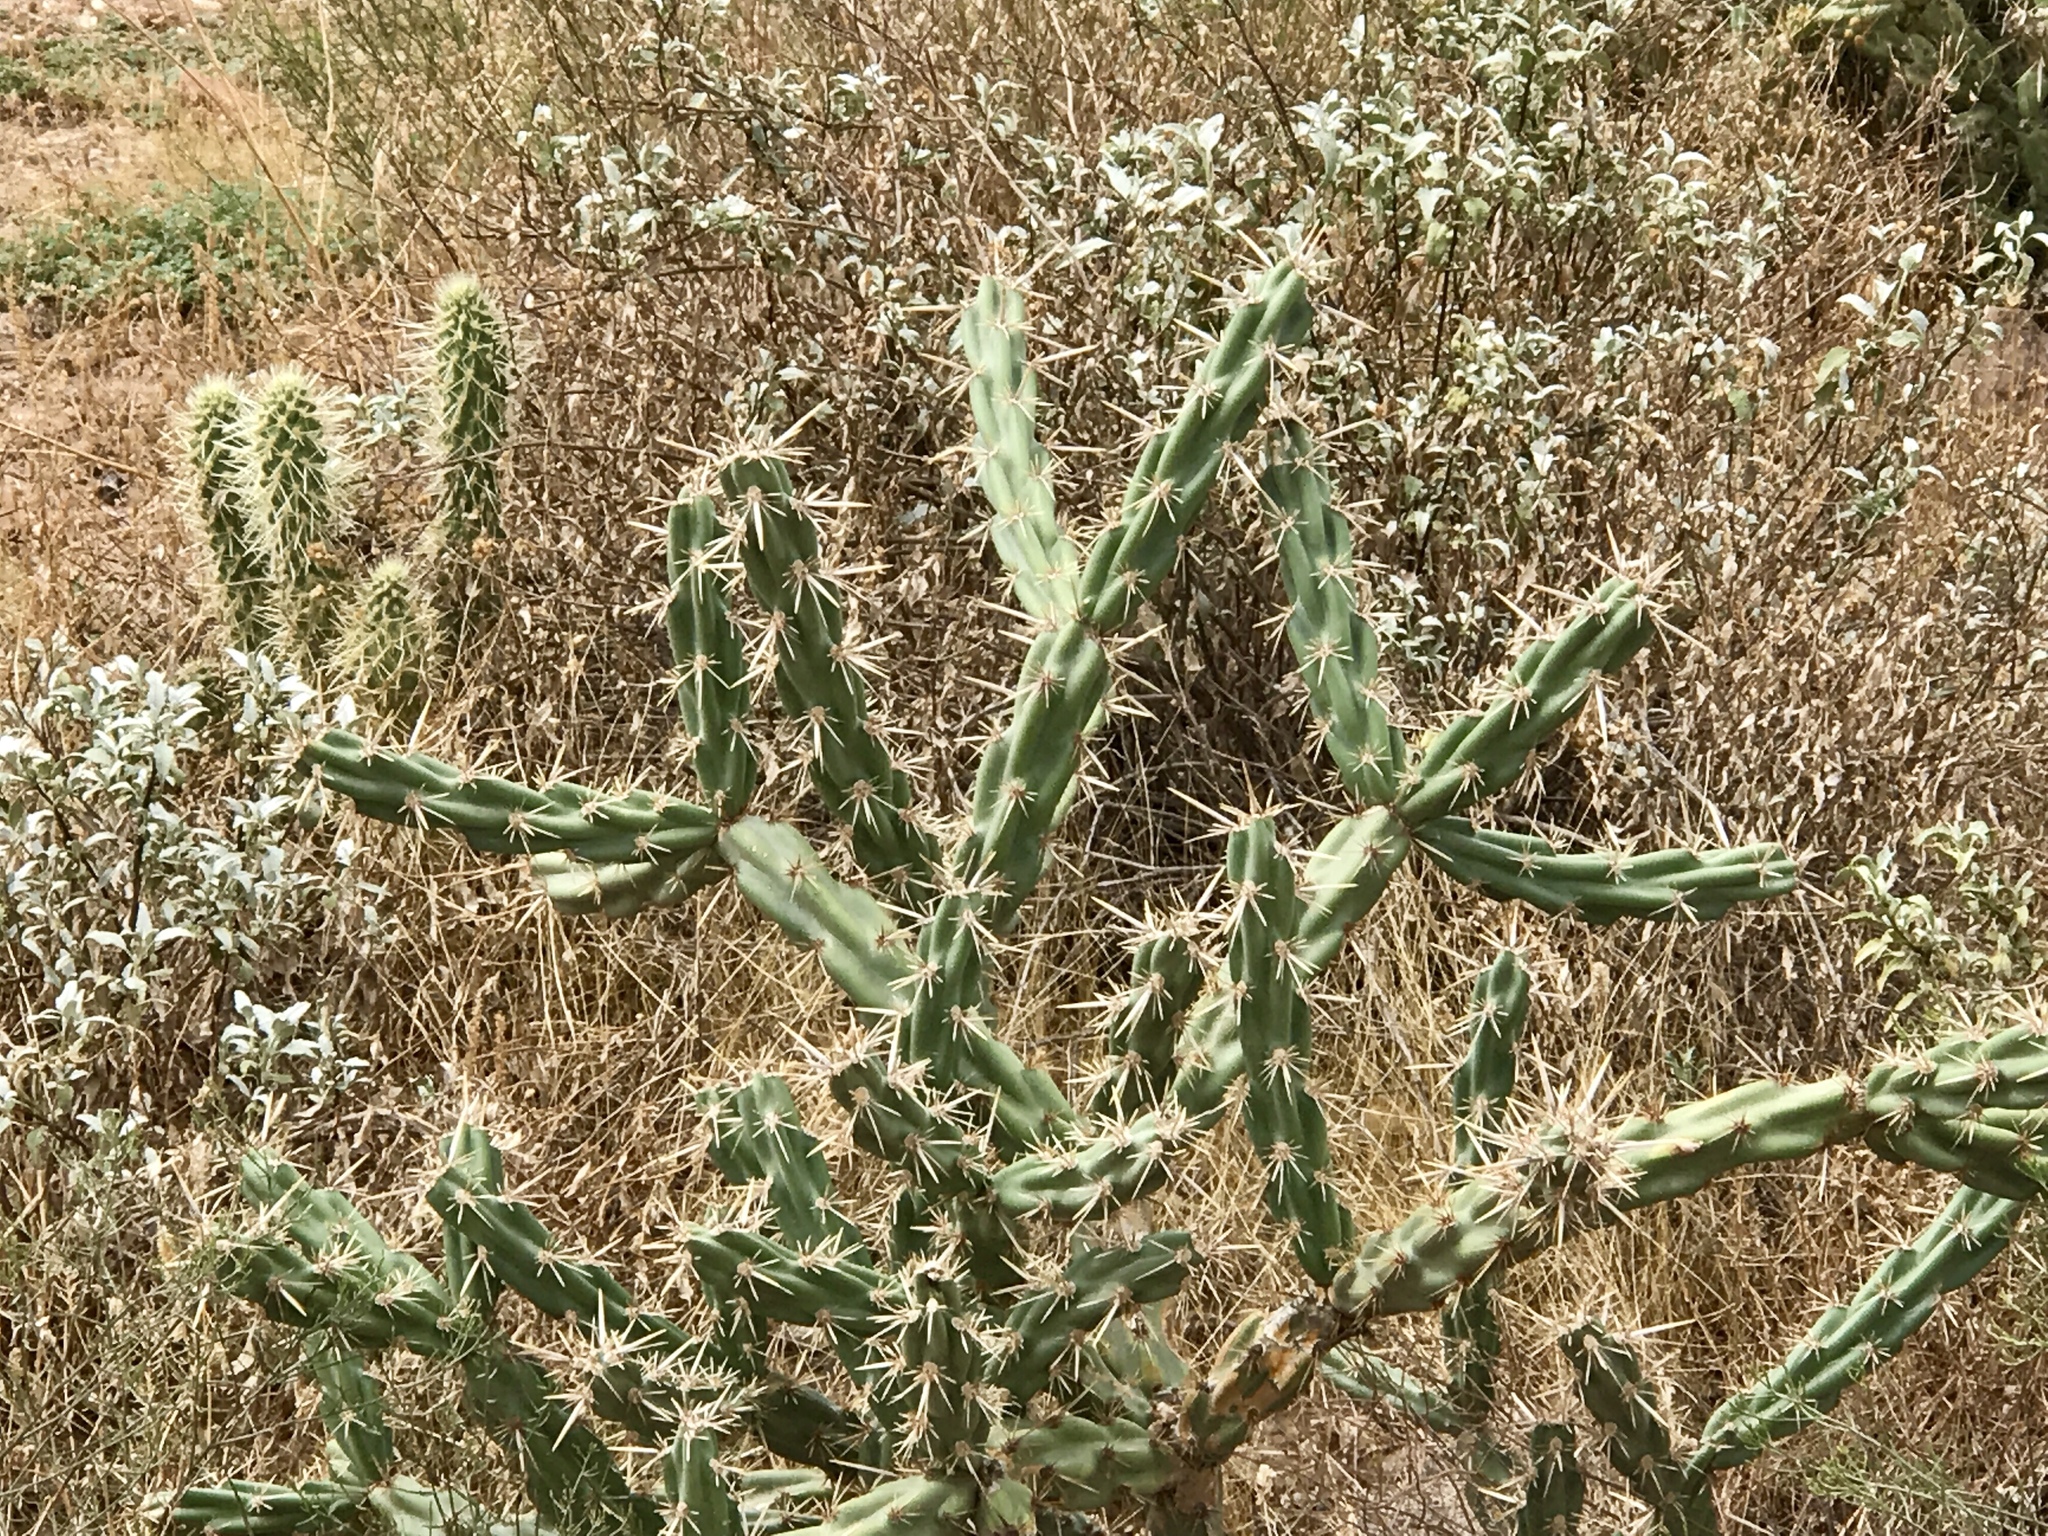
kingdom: Plantae
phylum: Tracheophyta
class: Magnoliopsida
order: Caryophyllales
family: Cactaceae
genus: Cylindropuntia
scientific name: Cylindropuntia acanthocarpa
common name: Buckhorn cholla
